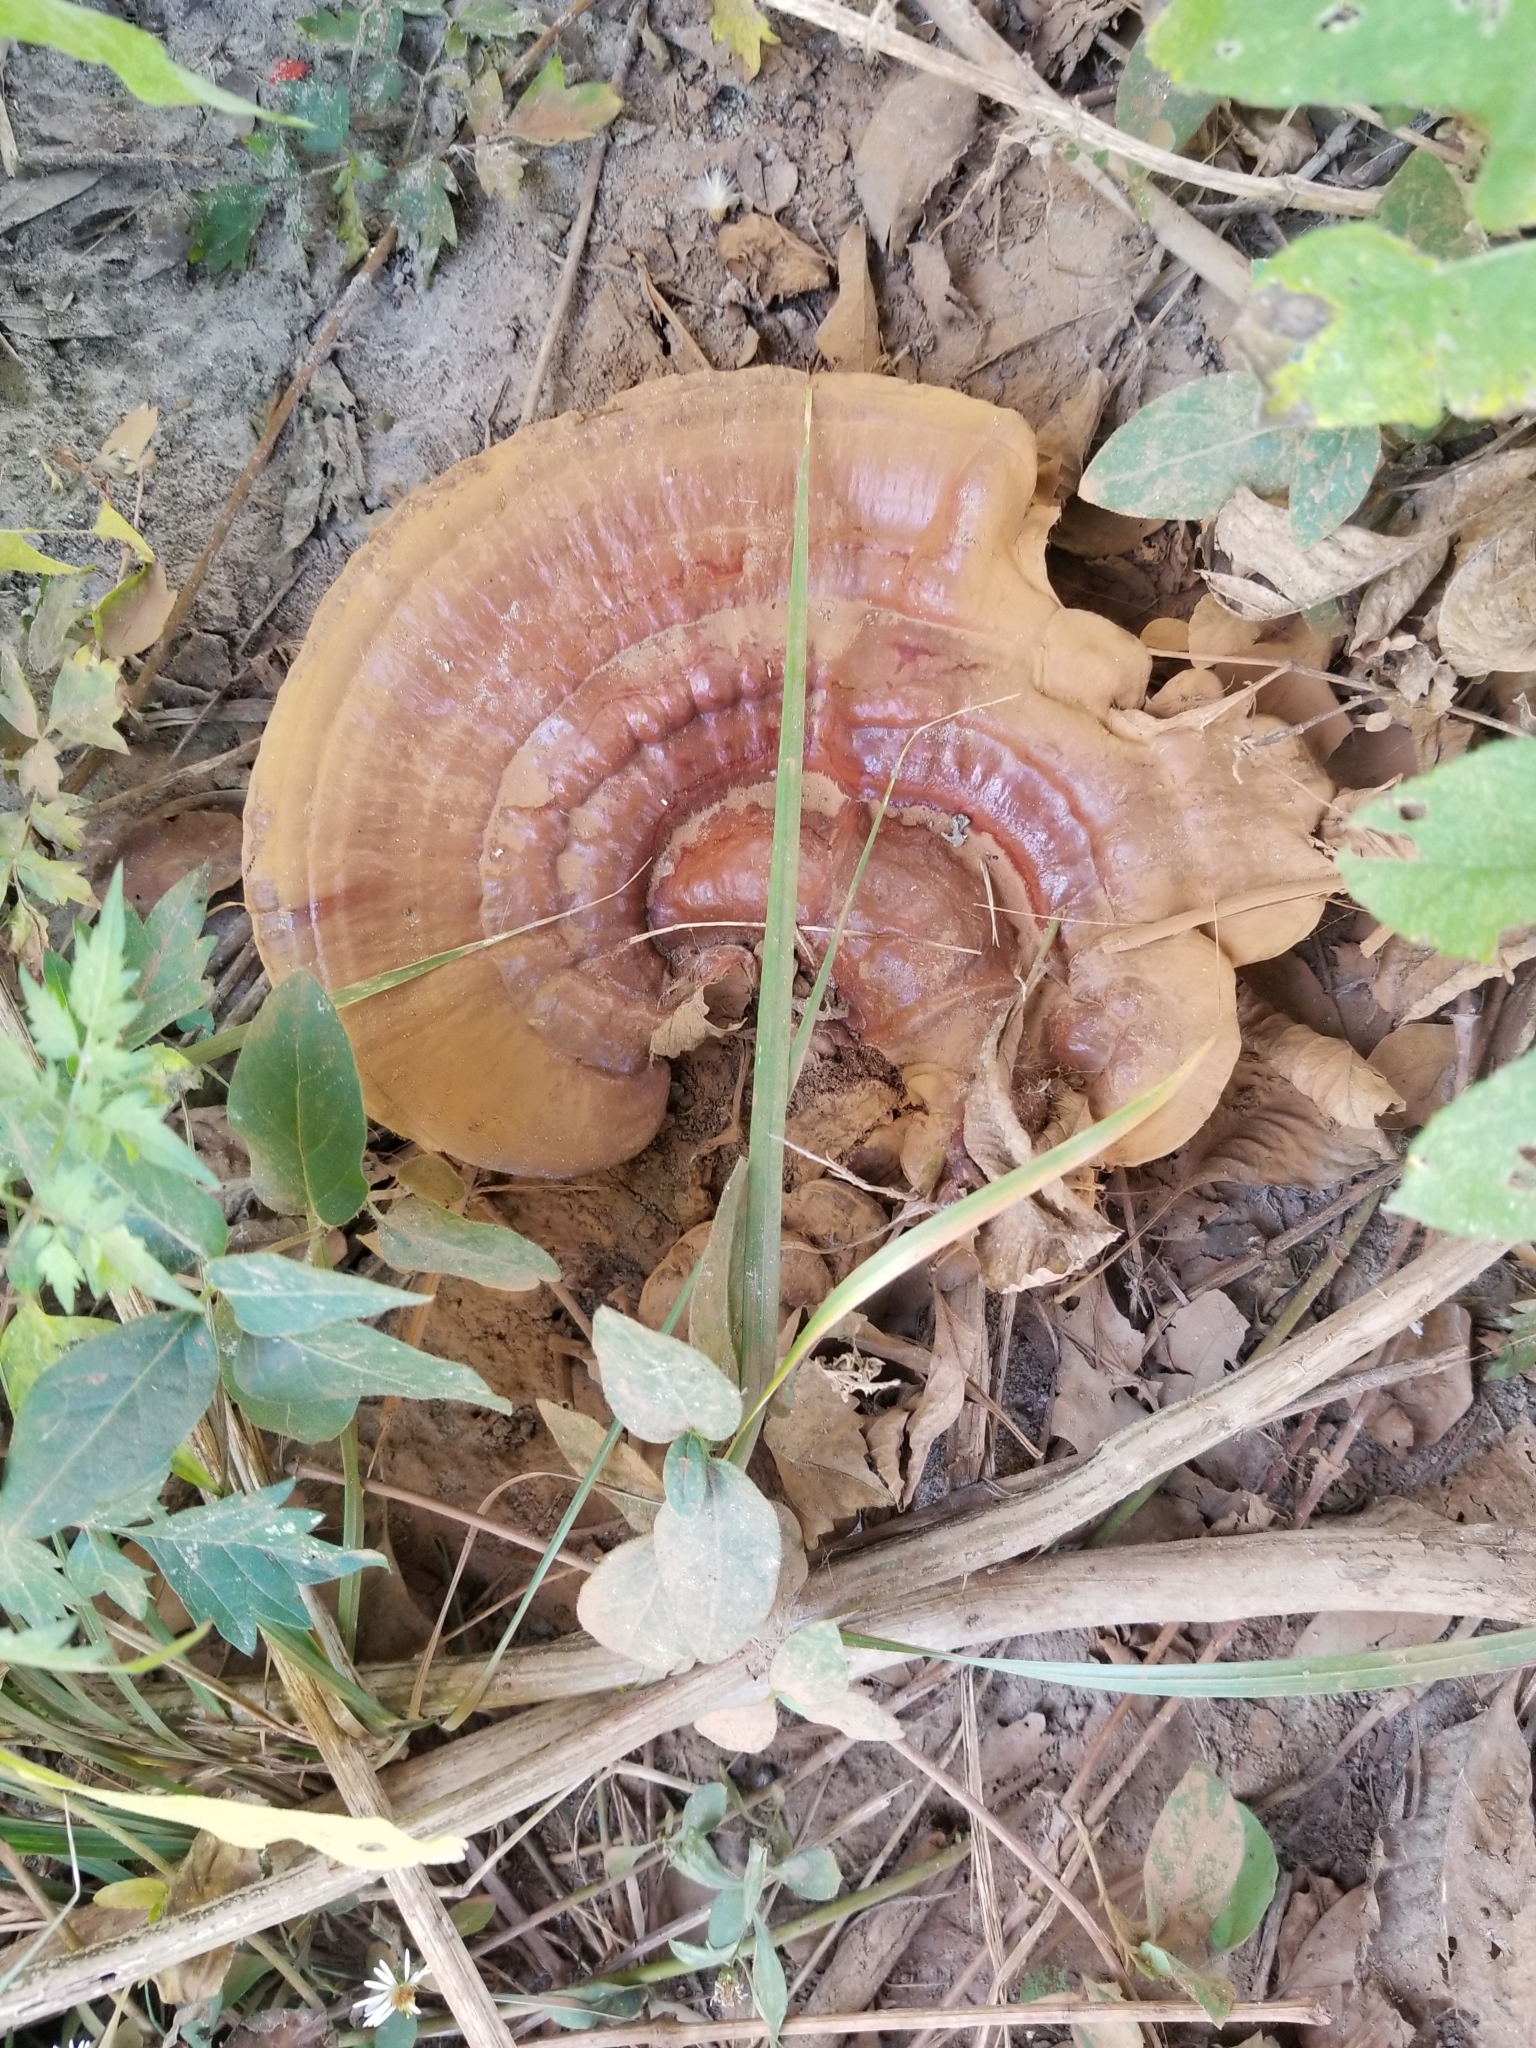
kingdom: Fungi
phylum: Basidiomycota
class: Agaricomycetes
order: Polyporales
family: Polyporaceae
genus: Ganoderma
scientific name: Ganoderma curtisii
